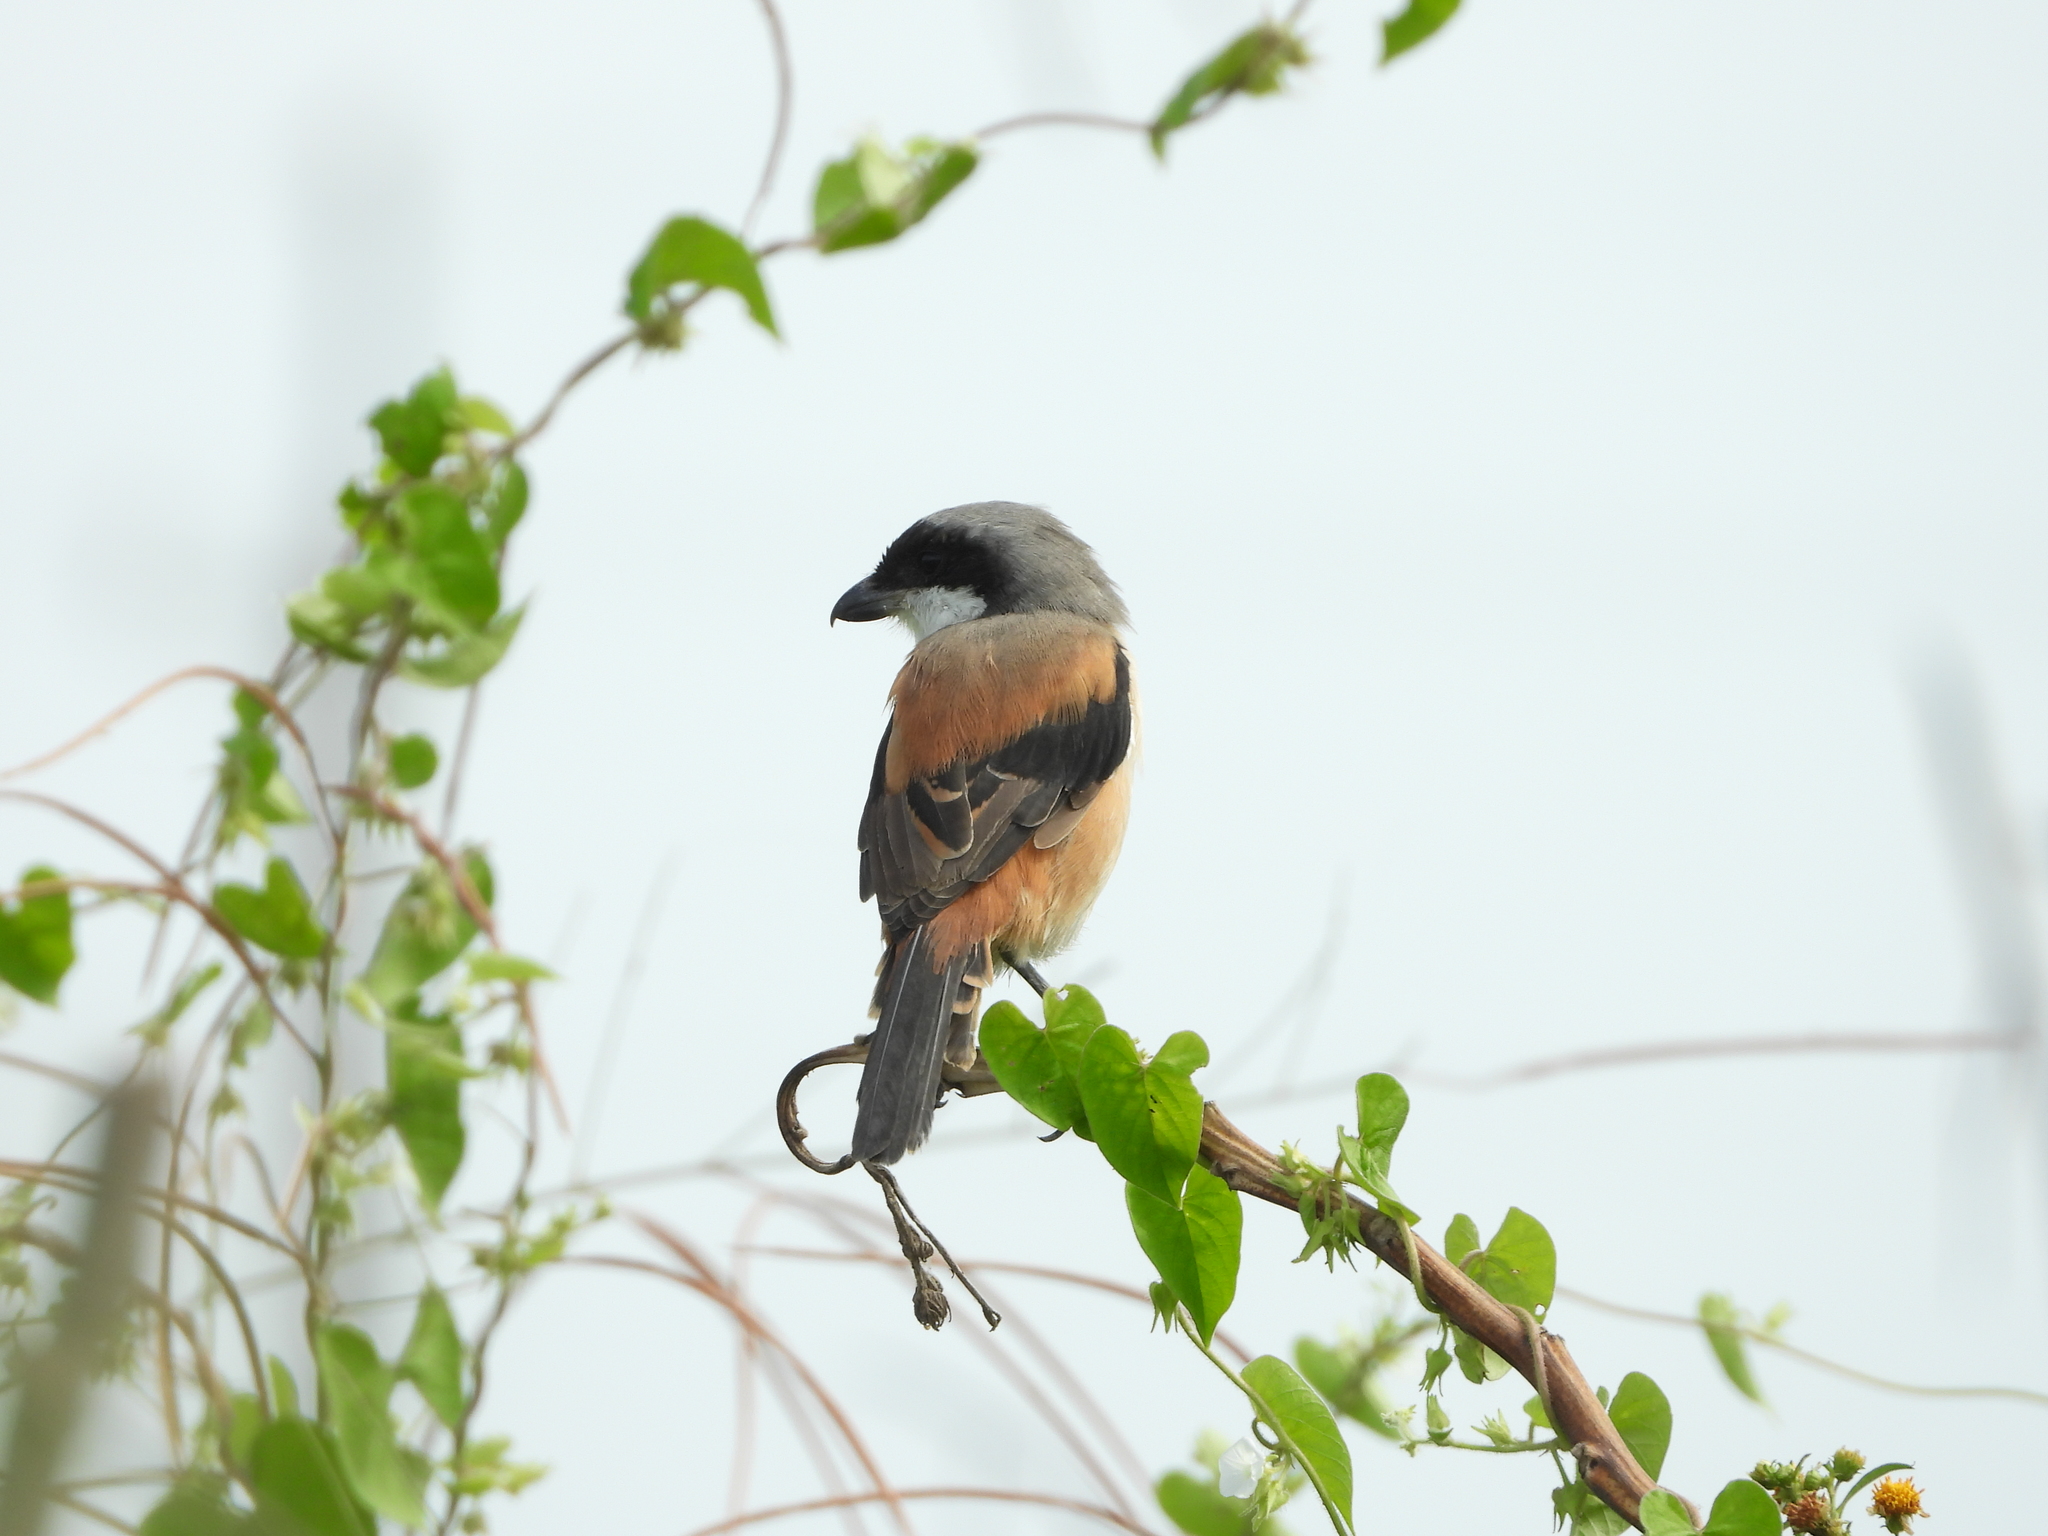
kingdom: Animalia
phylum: Chordata
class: Aves
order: Passeriformes
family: Laniidae
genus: Lanius
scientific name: Lanius schach
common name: Long-tailed shrike
